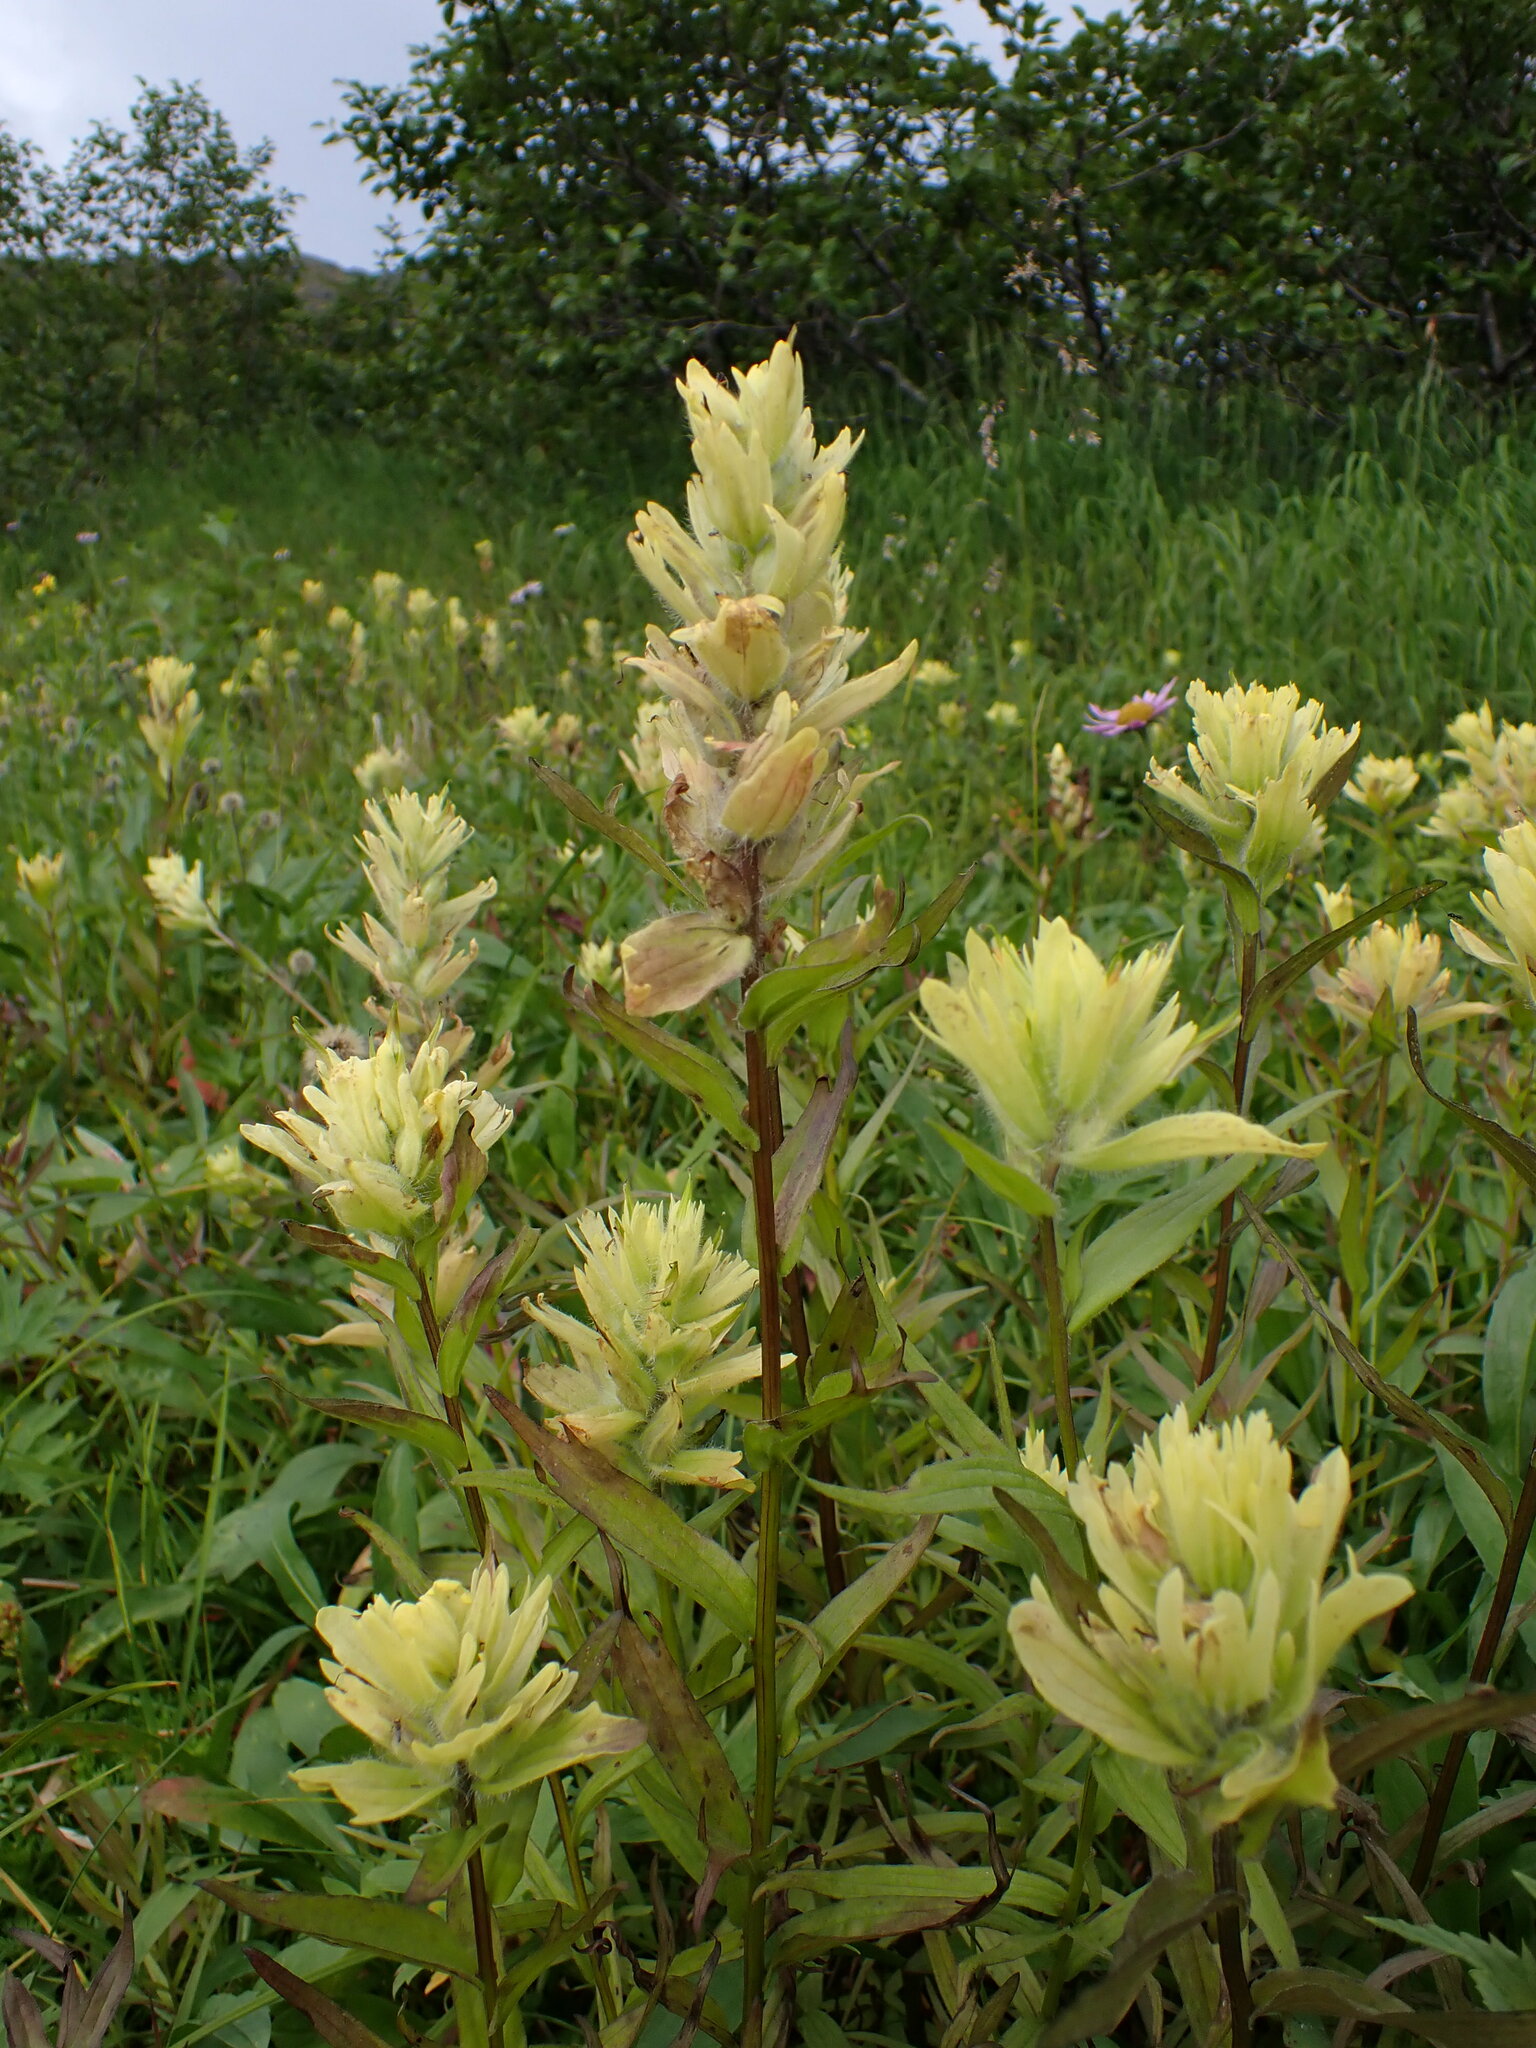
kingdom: Plantae
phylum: Tracheophyta
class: Magnoliopsida
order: Lamiales
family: Orobanchaceae
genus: Castilleja
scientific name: Castilleja unalaschcensis
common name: Unalaska paintbrush
